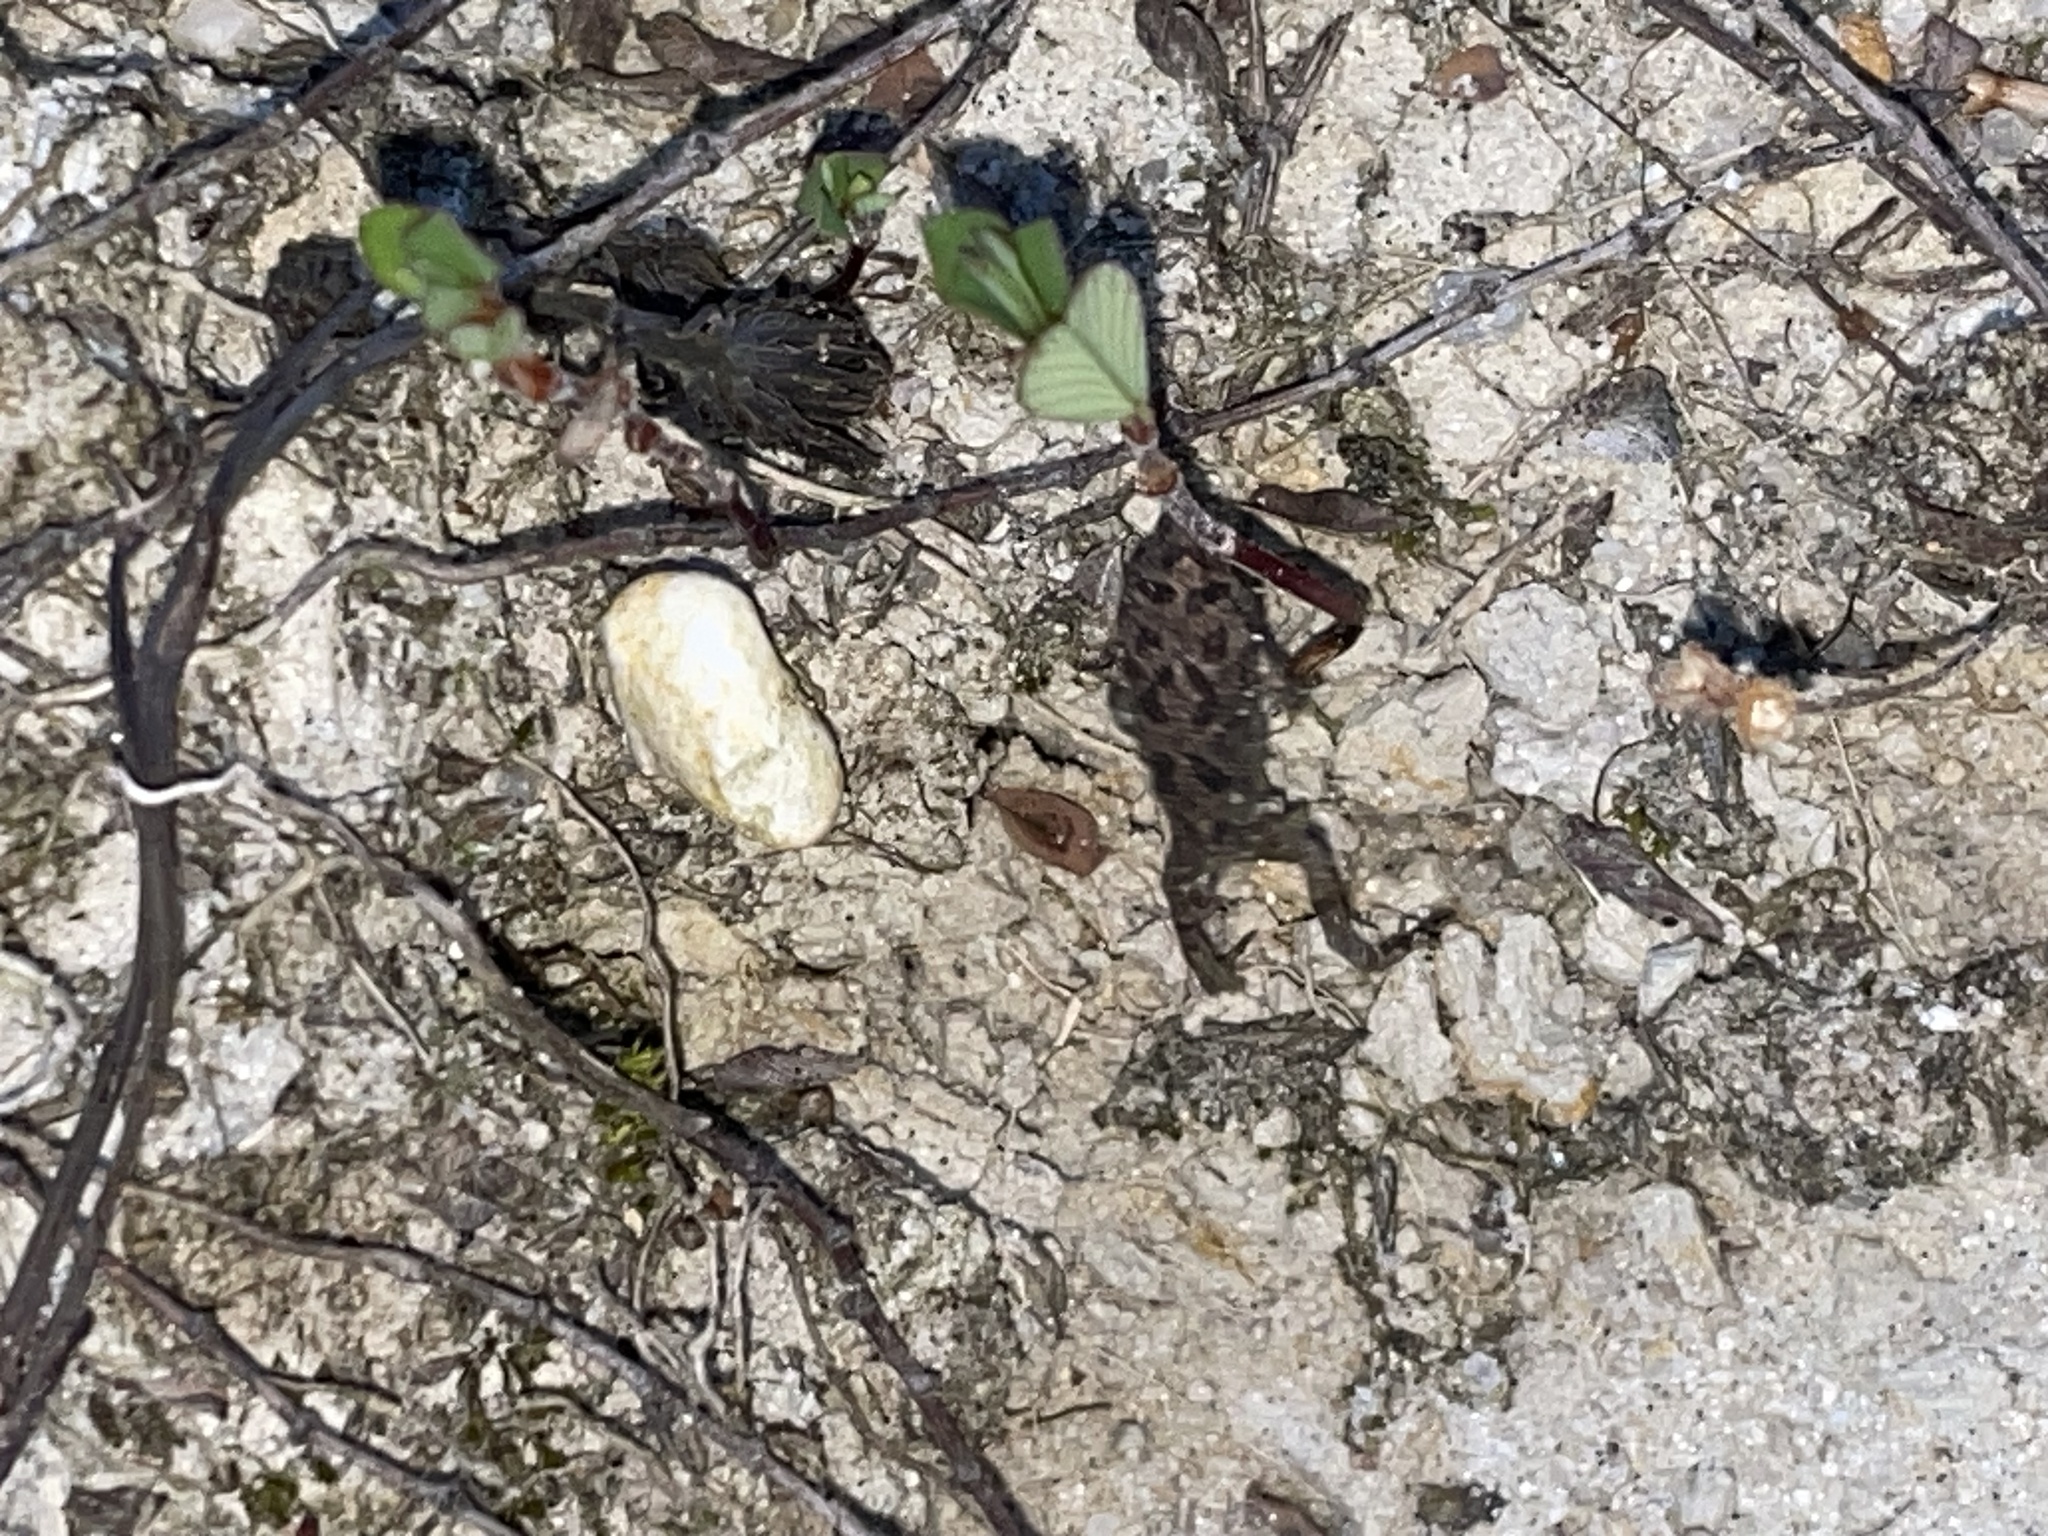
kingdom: Animalia
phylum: Chordata
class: Amphibia
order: Anura
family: Bufonidae
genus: Anaxyrus
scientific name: Anaxyrus fowleri
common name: Fowler's toad
